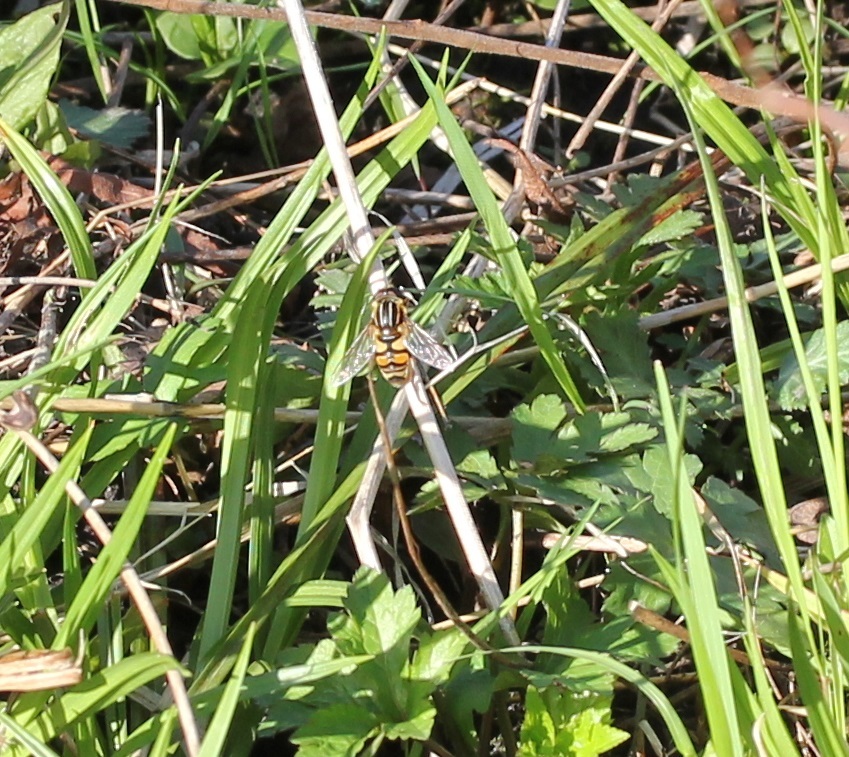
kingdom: Animalia
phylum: Arthropoda
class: Insecta
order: Diptera
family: Syrphidae
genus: Helophilus
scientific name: Helophilus fasciatus
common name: Narrow-headed marsh fly
